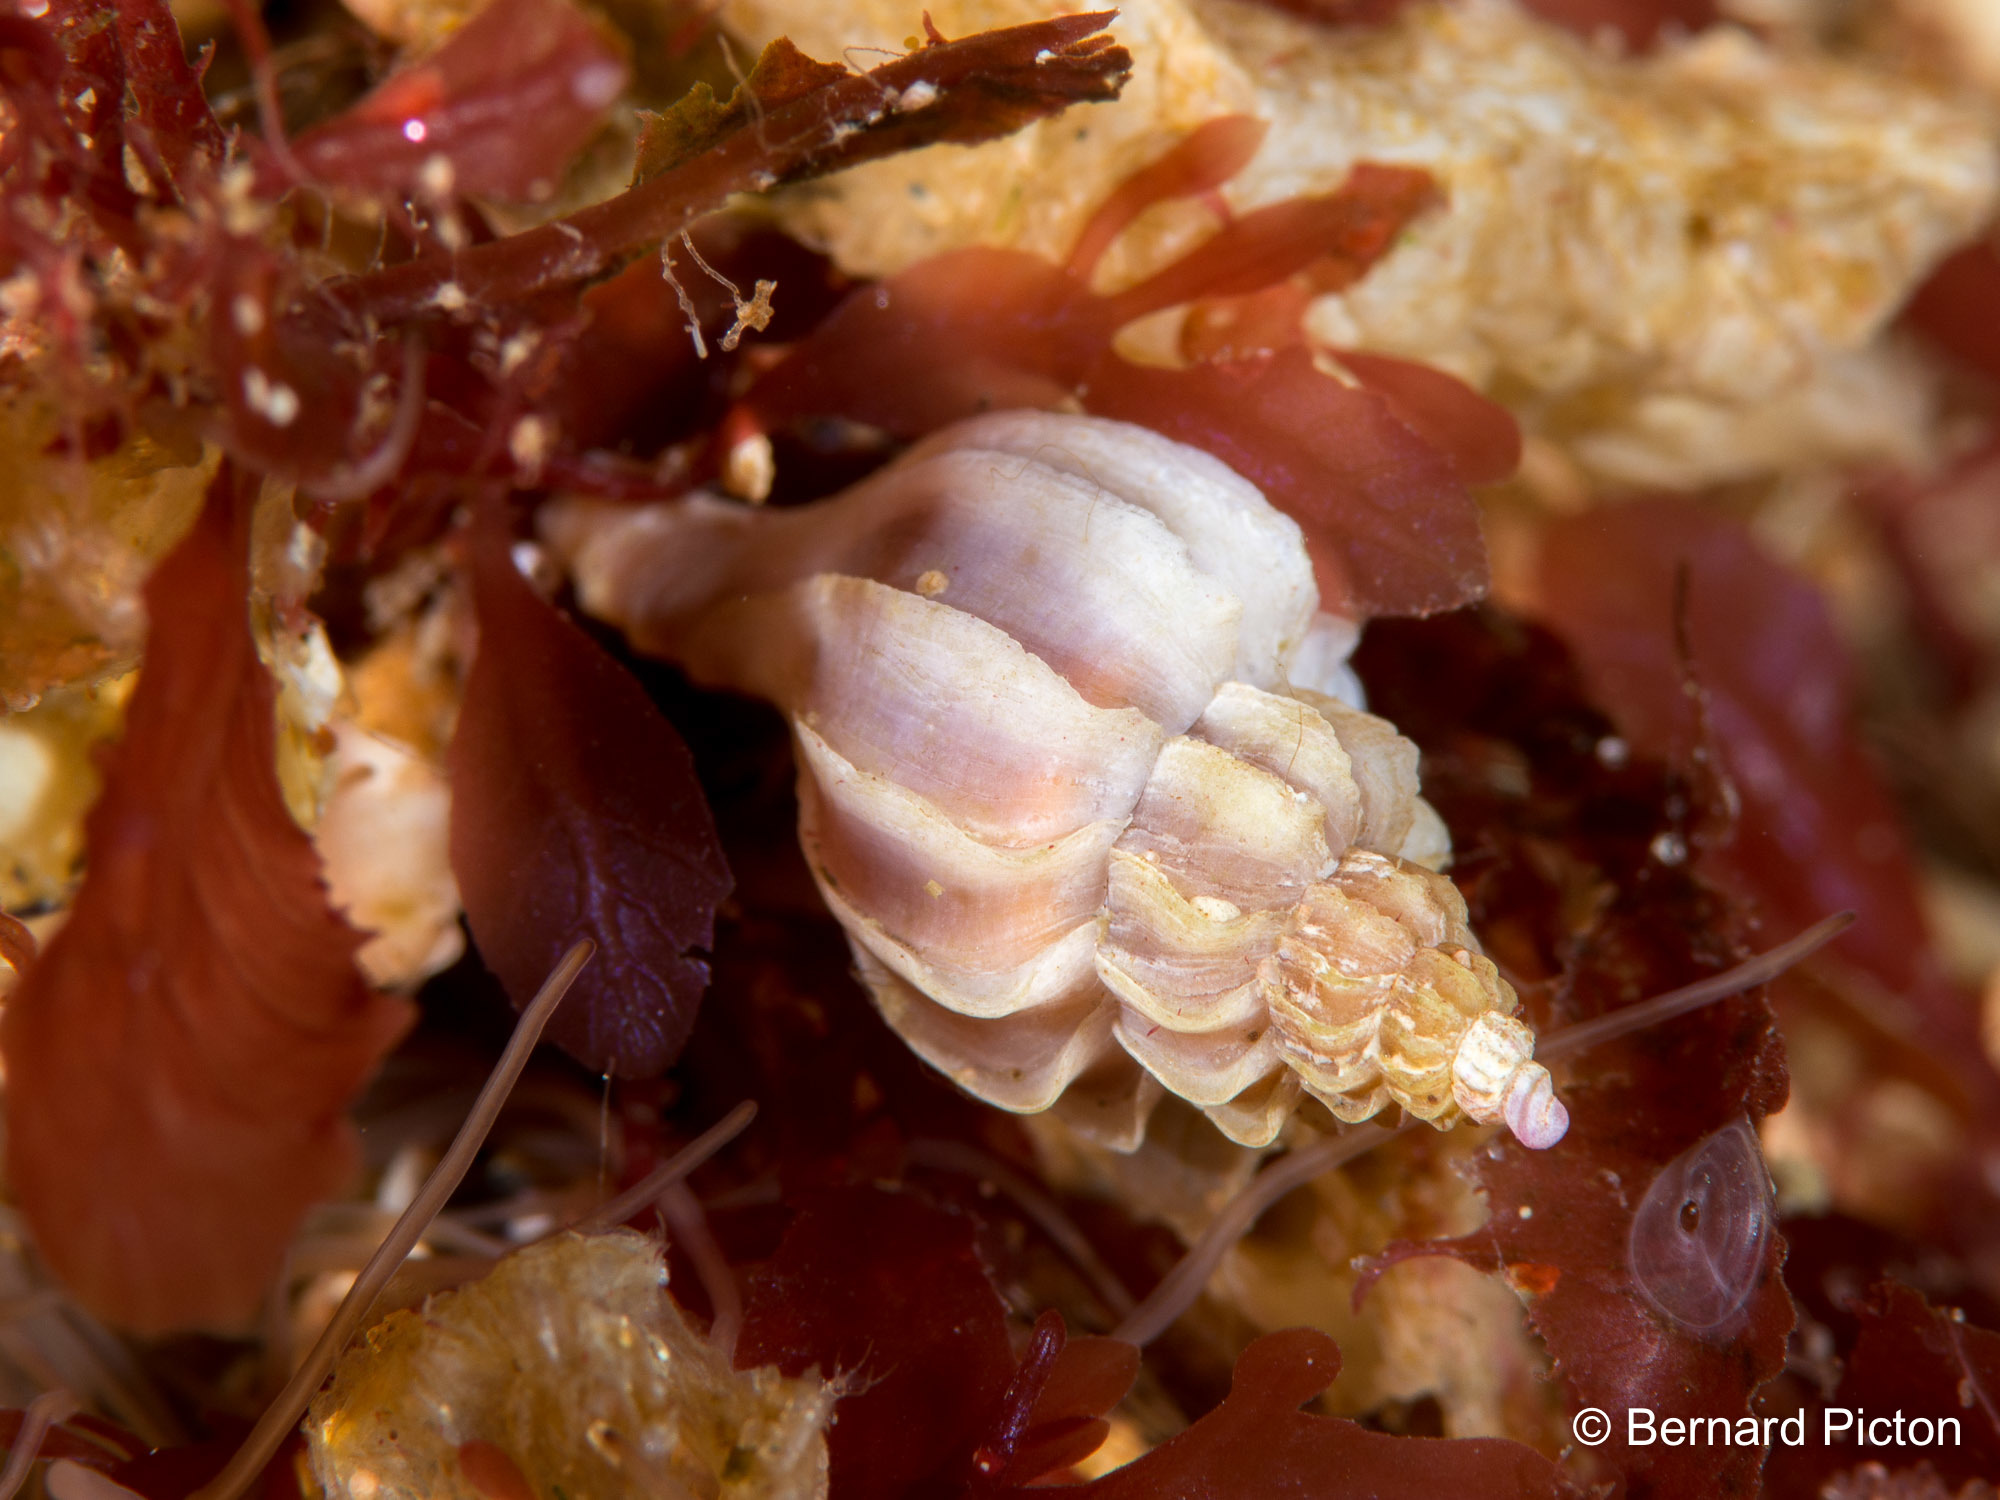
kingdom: Animalia
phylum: Mollusca
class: Gastropoda
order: Neogastropoda
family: Muricidae
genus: Boreotrophon
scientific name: Boreotrophon clathratus
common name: Clathrate trophon
